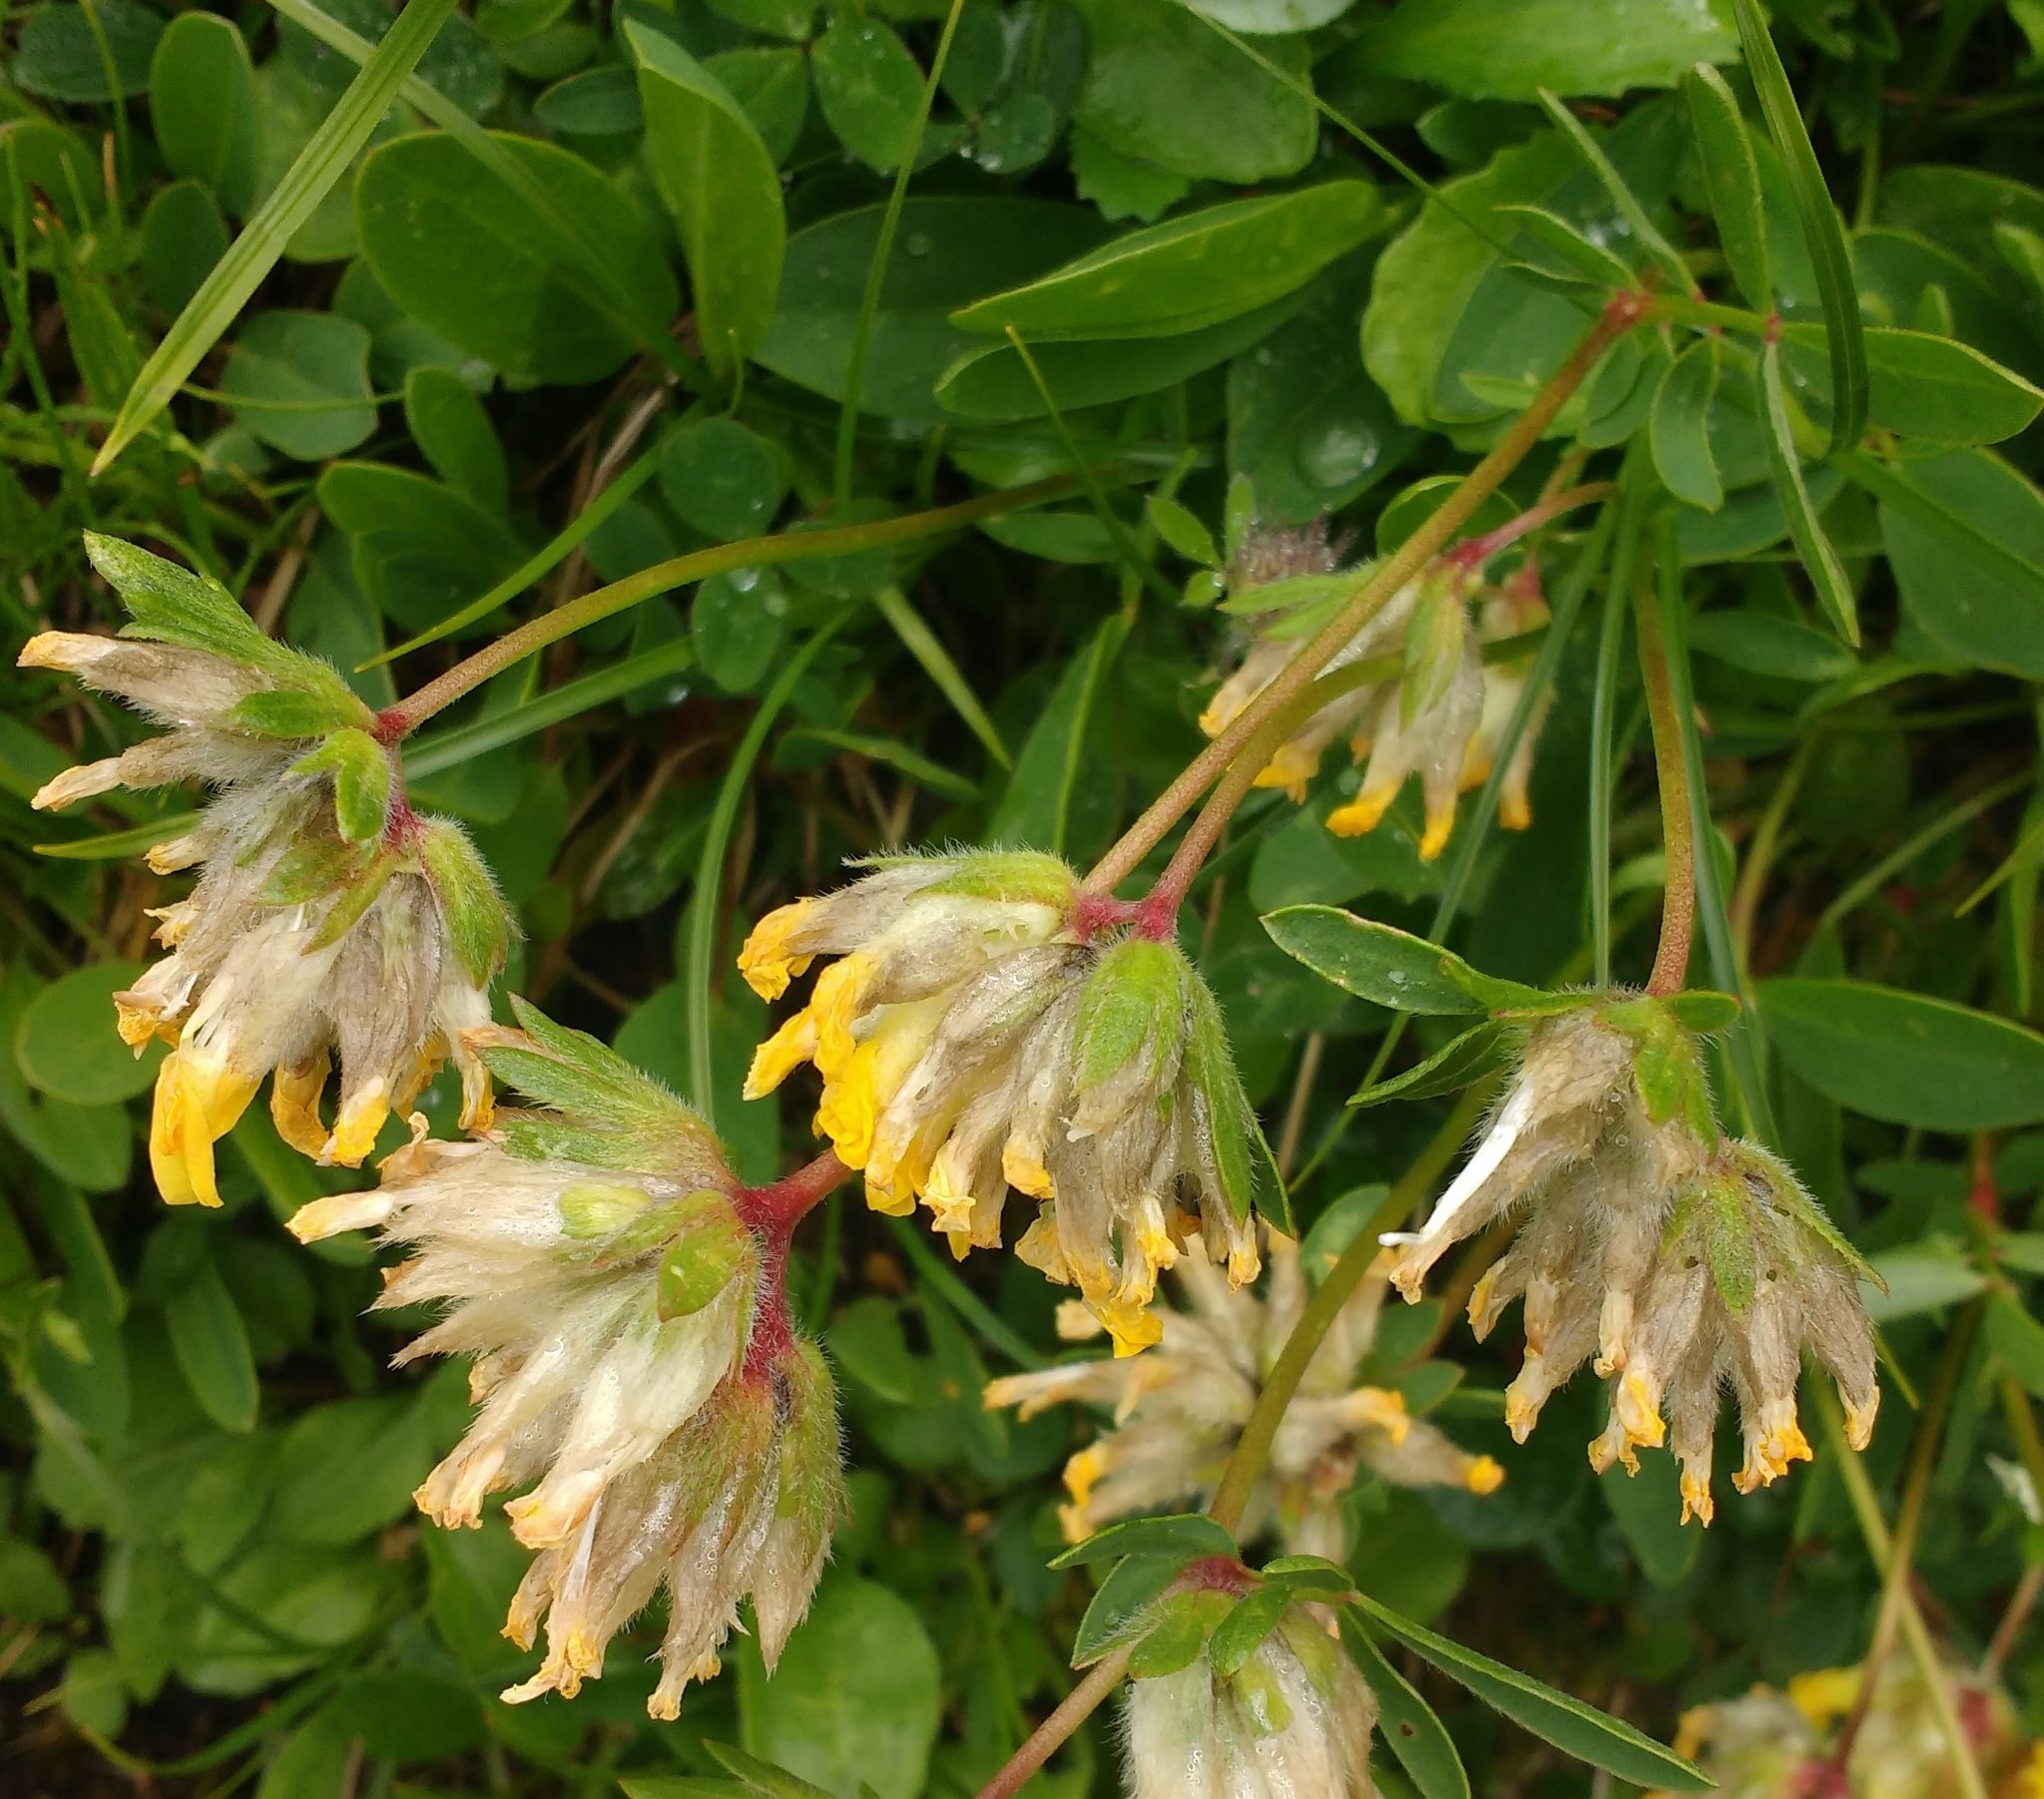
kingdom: Plantae
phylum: Tracheophyta
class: Magnoliopsida
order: Fabales
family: Fabaceae
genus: Anthyllis
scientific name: Anthyllis vulneraria
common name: Kidney vetch
